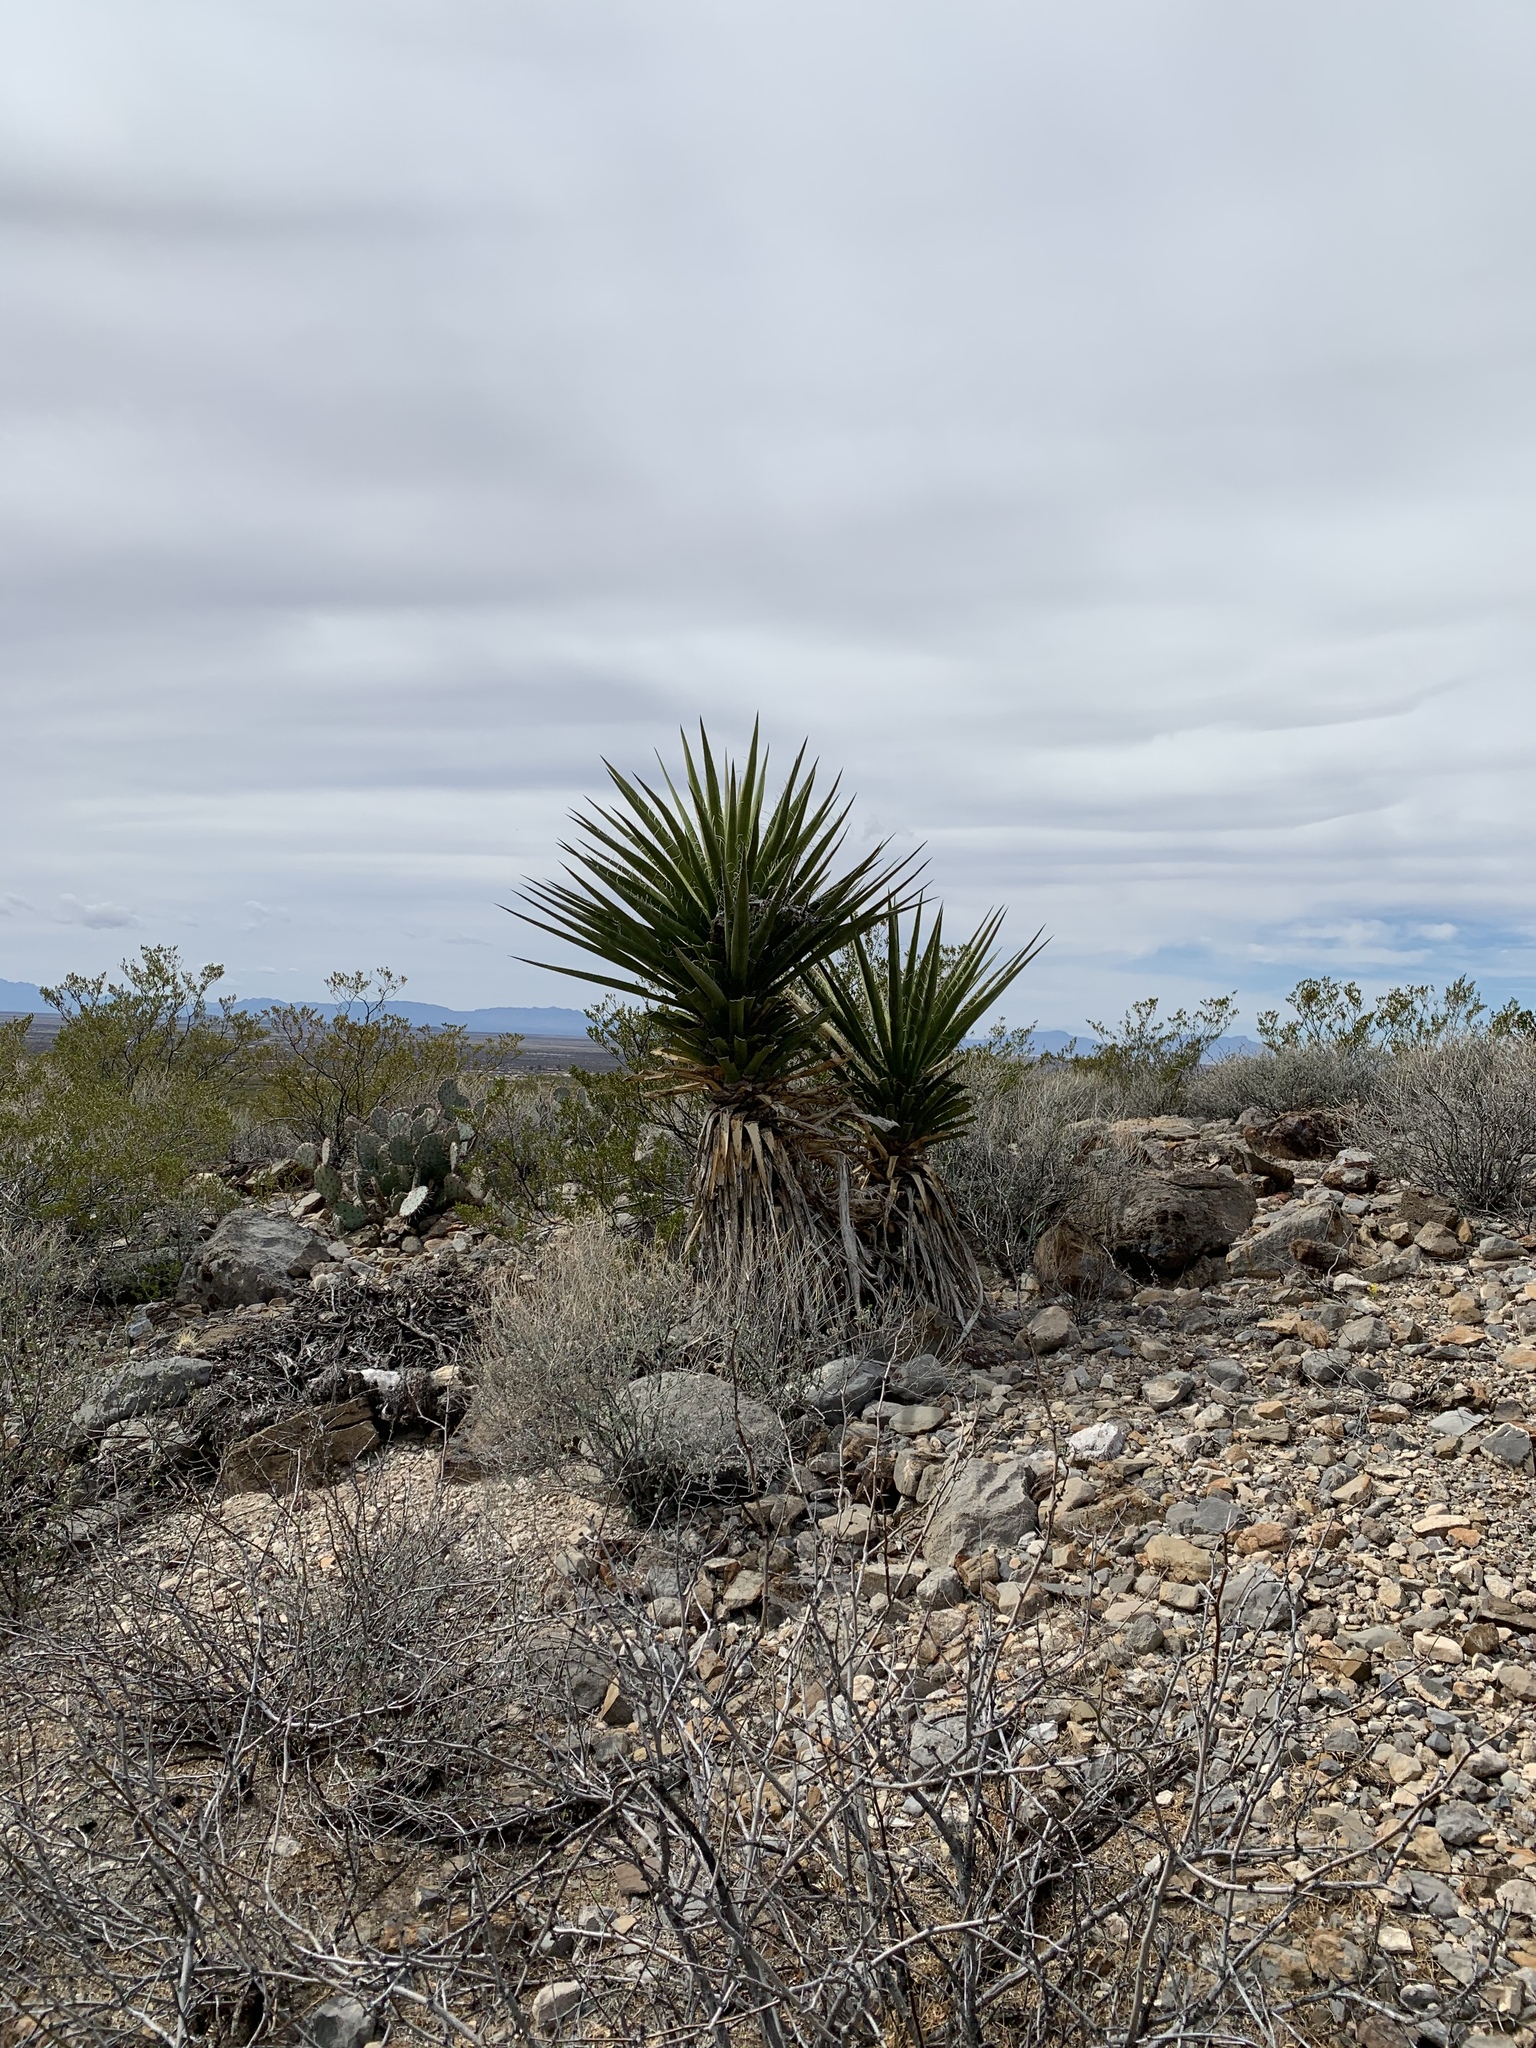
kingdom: Plantae
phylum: Tracheophyta
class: Liliopsida
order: Asparagales
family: Asparagaceae
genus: Yucca
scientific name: Yucca treculiana
